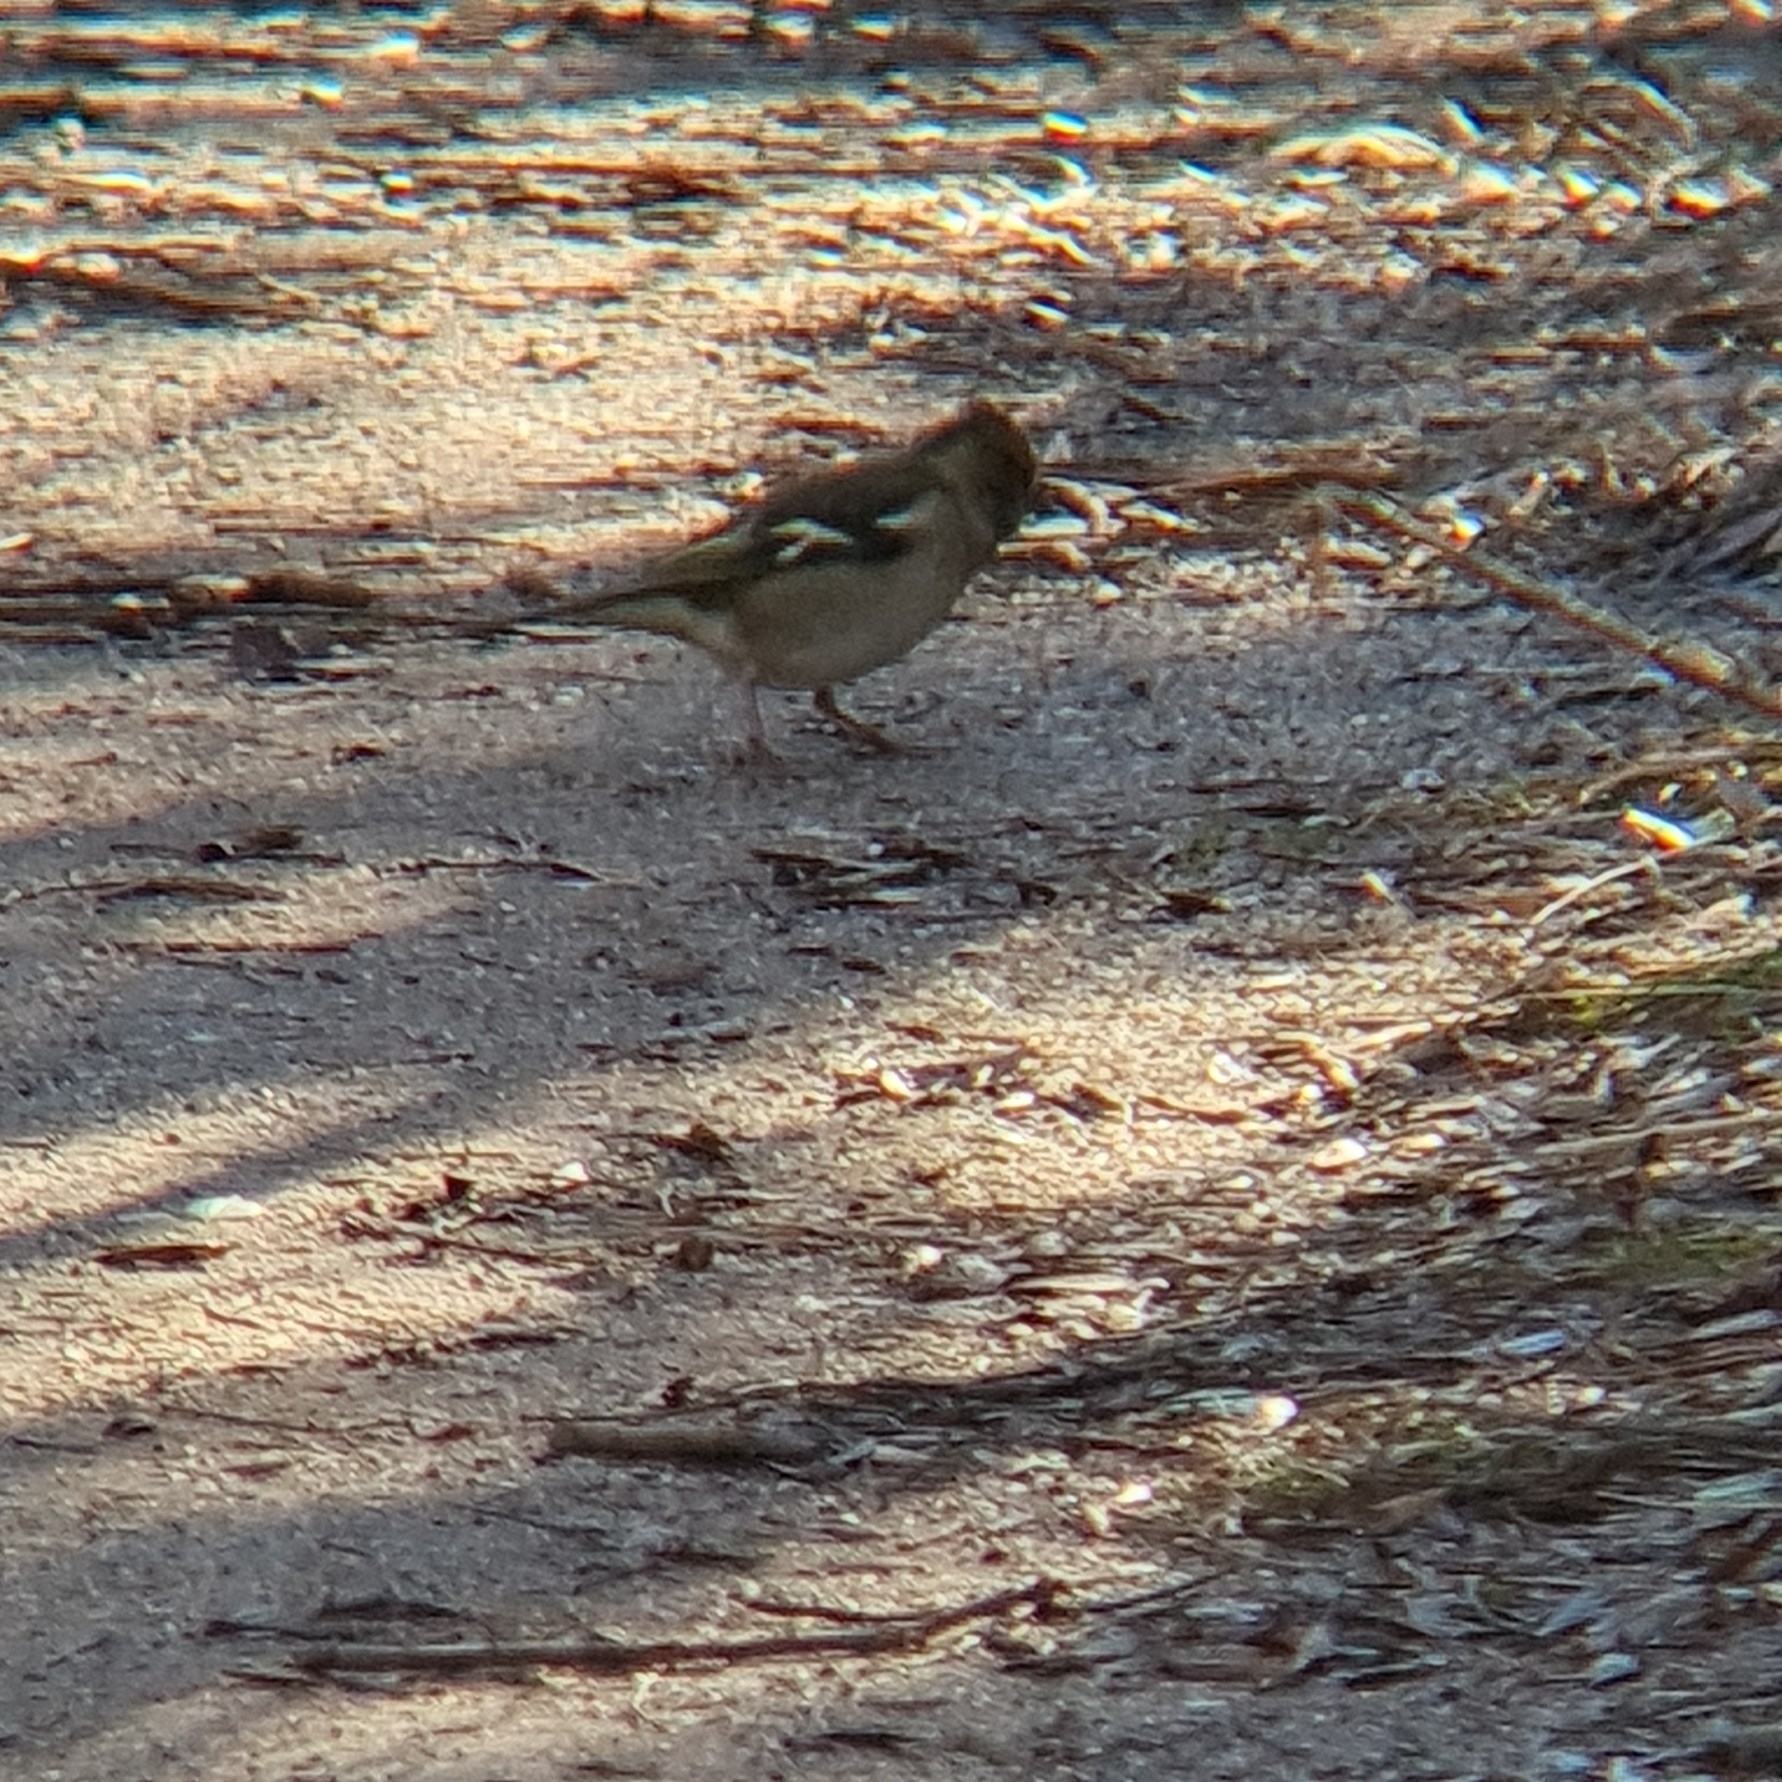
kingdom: Animalia
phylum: Chordata
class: Aves
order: Passeriformes
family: Fringillidae
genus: Fringilla
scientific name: Fringilla coelebs
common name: Common chaffinch
